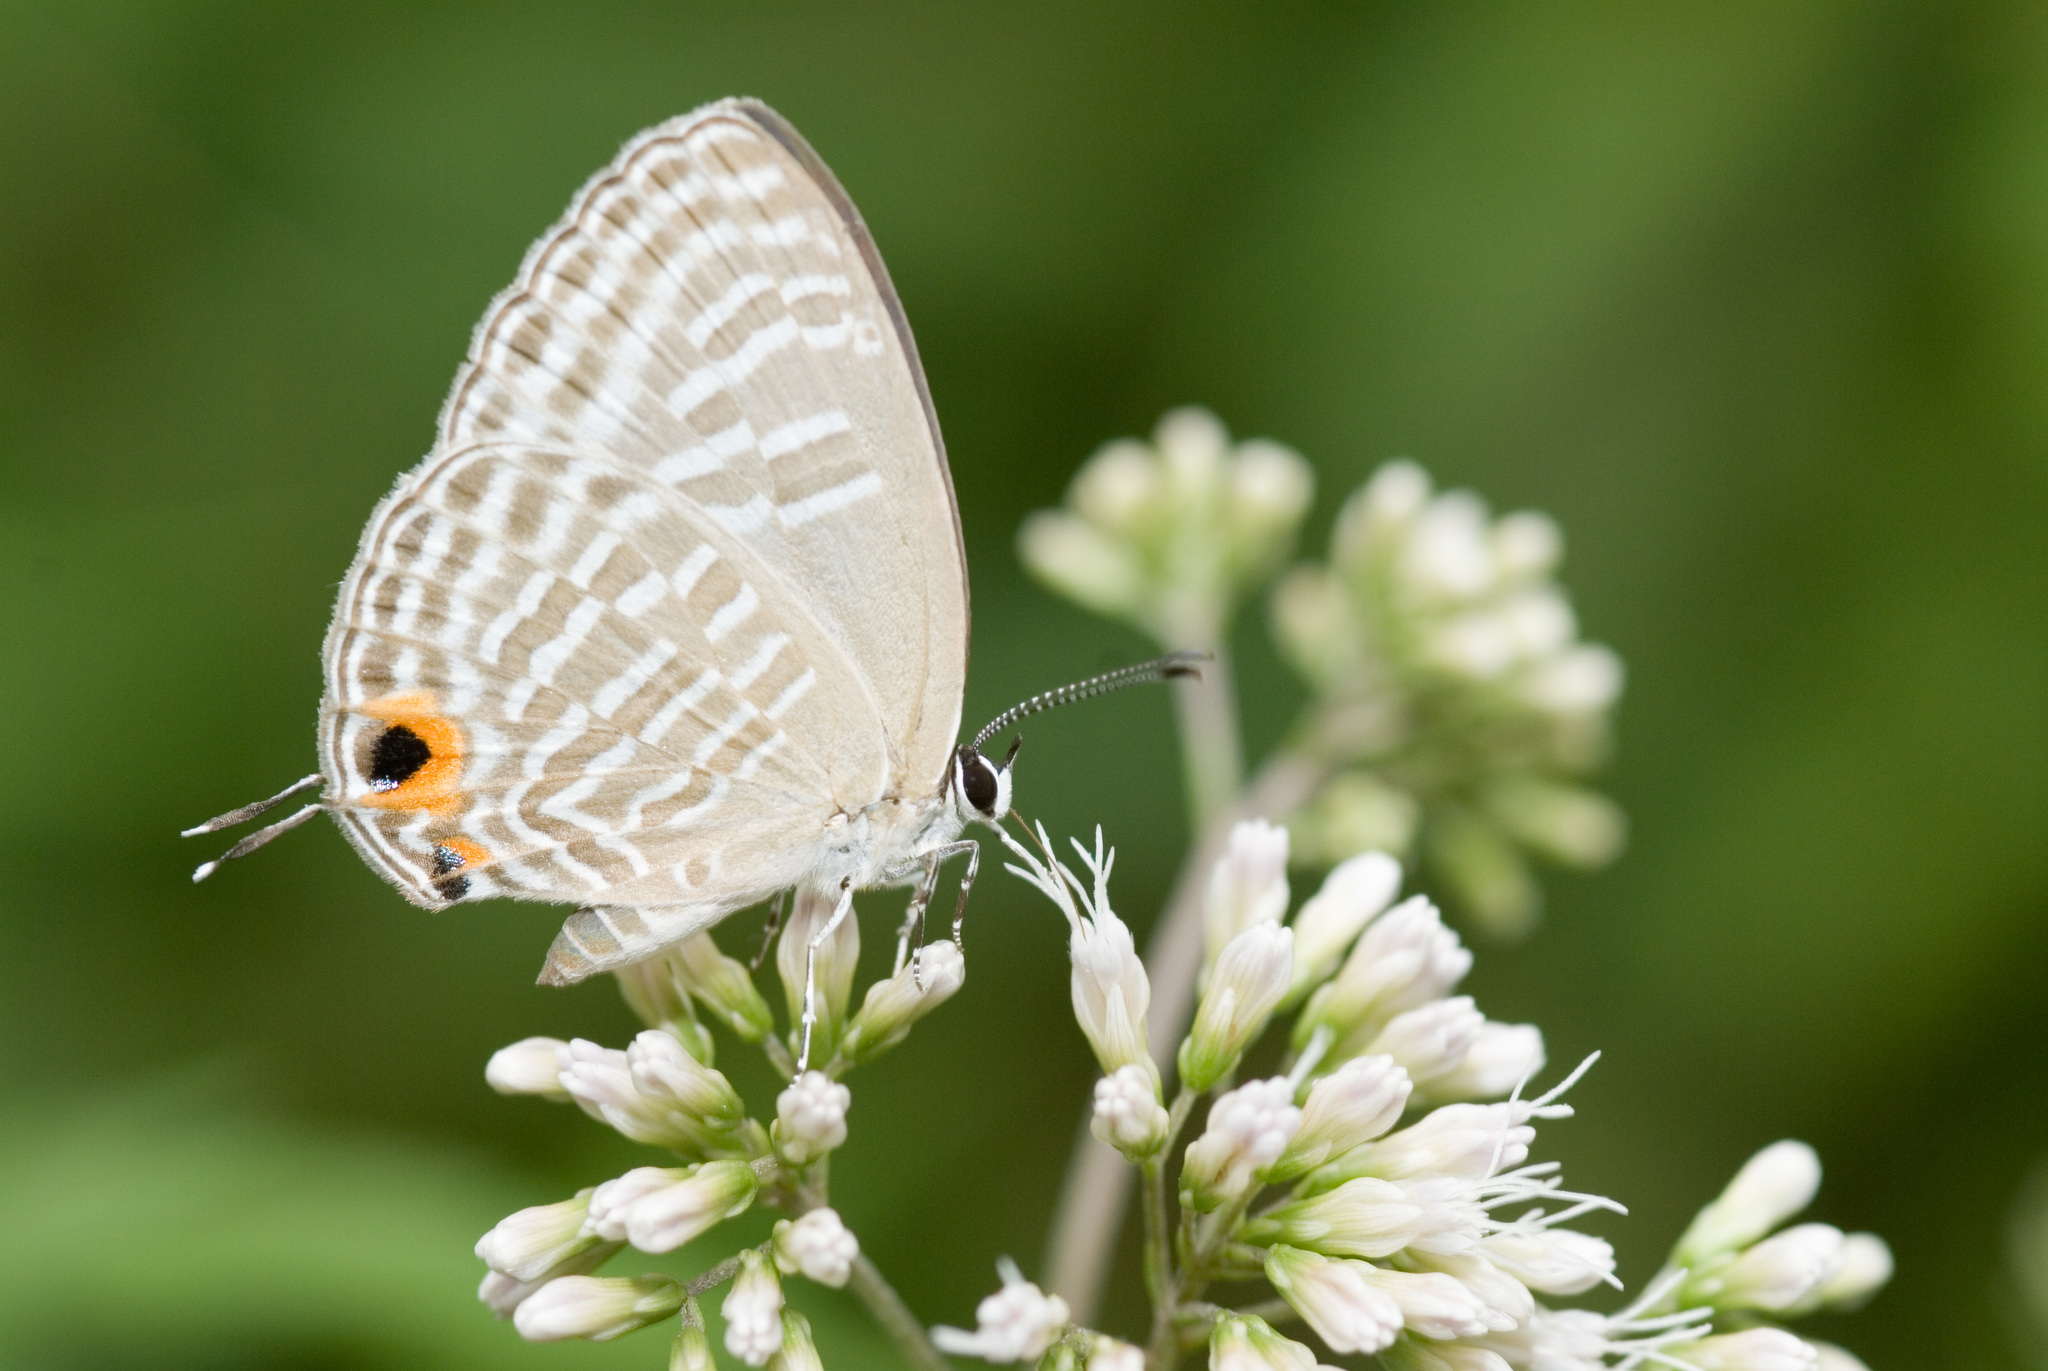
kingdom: Animalia
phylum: Arthropoda
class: Insecta
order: Lepidoptera
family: Lycaenidae
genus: Jamides
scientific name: Jamides alecto
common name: Metallic cerulean
